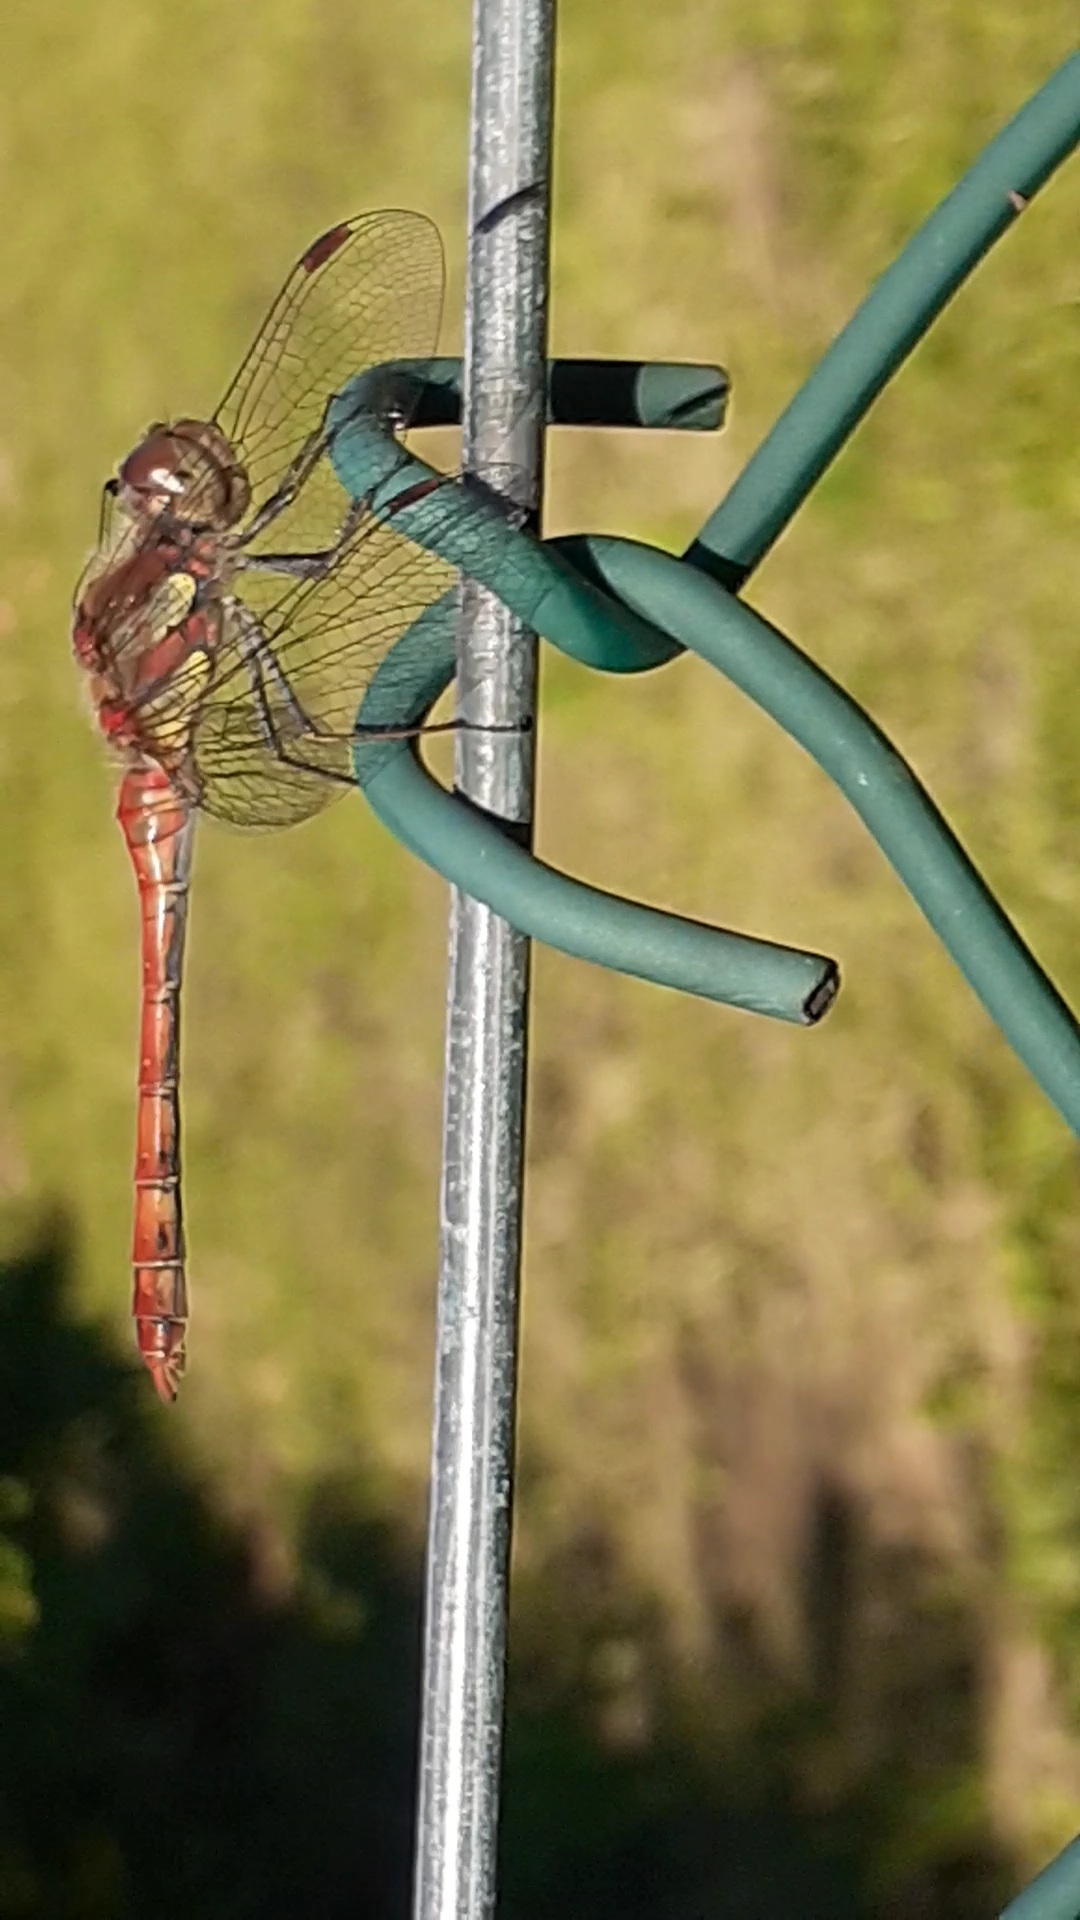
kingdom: Animalia
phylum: Arthropoda
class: Insecta
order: Odonata
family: Libellulidae
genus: Sympetrum
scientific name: Sympetrum striolatum
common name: Common darter
